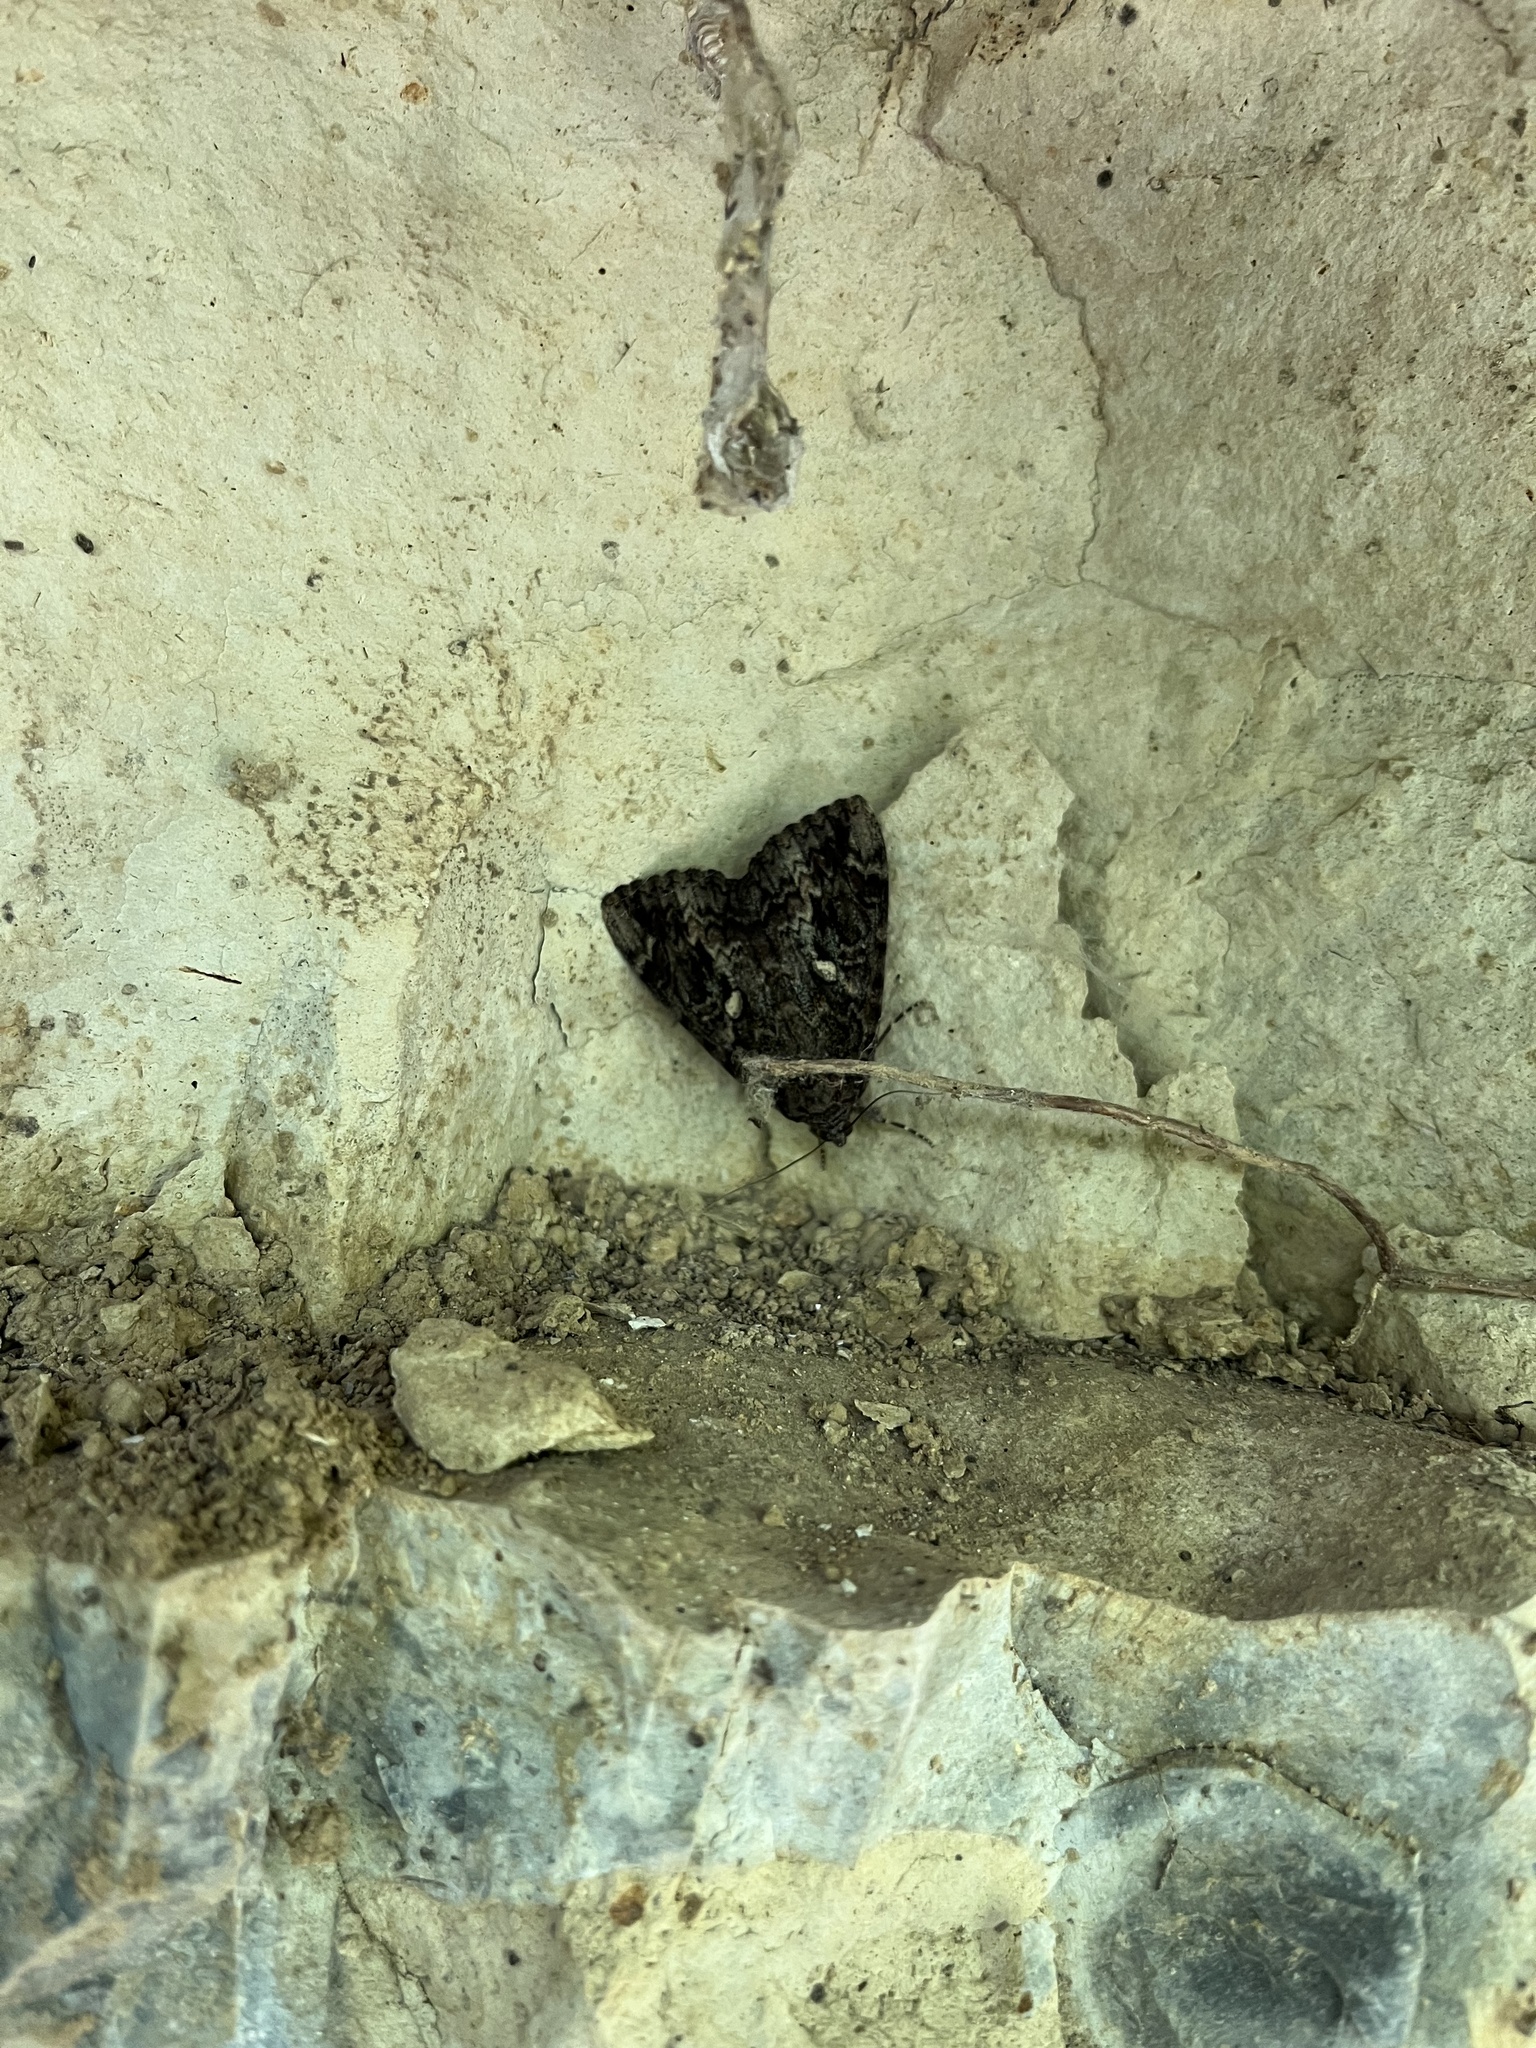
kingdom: Animalia
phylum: Arthropoda
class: Insecta
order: Lepidoptera
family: Erebidae
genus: Catocala
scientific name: Catocala innubens
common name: Betrothed underwing
